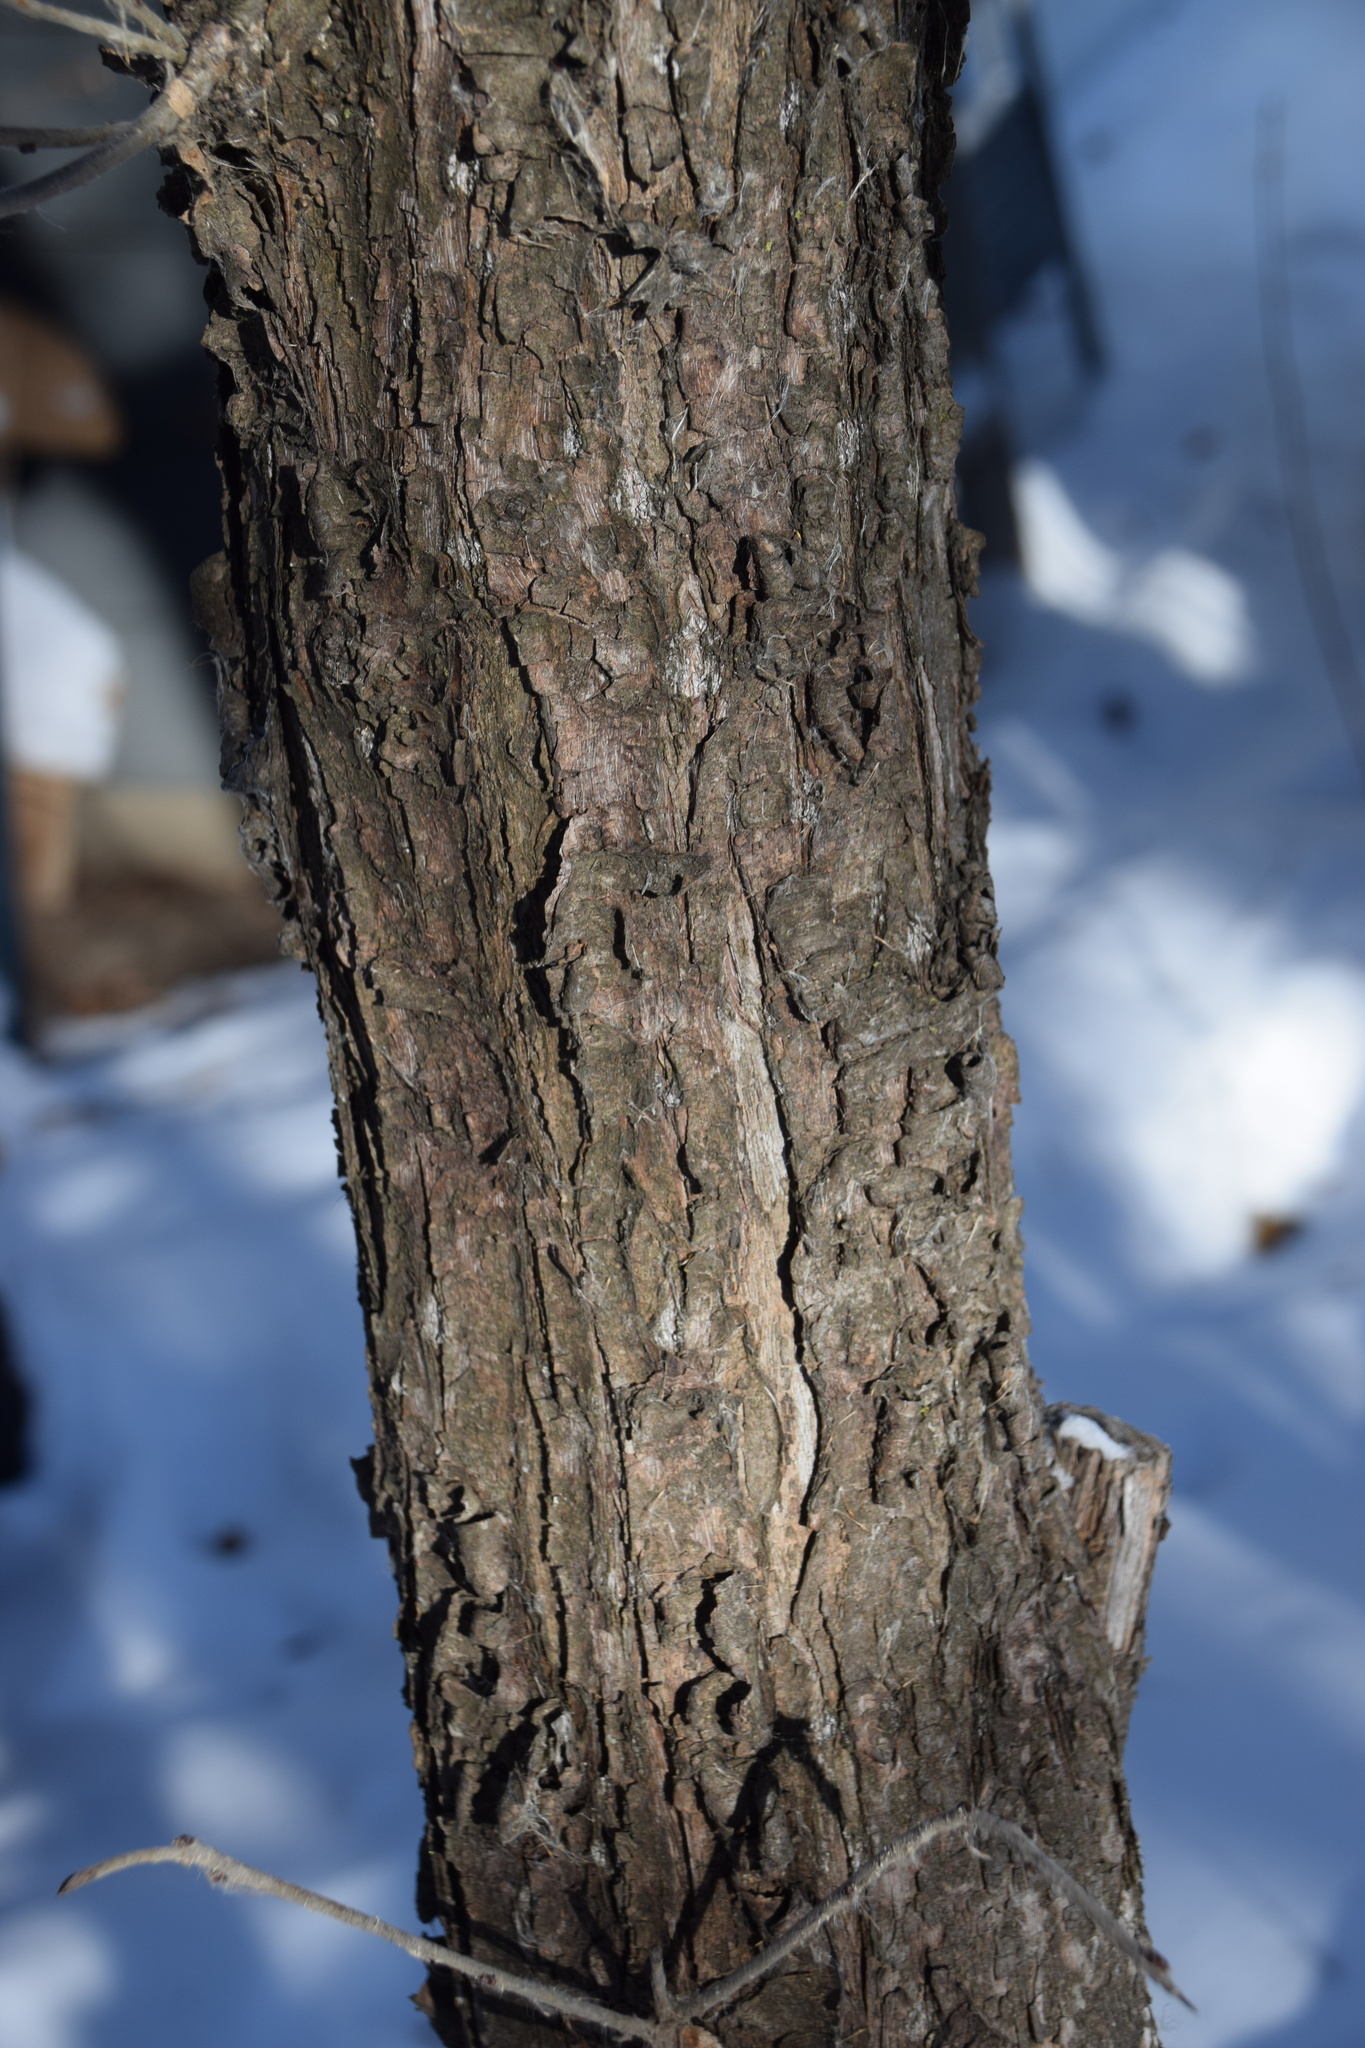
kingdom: Plantae
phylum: Tracheophyta
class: Magnoliopsida
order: Rosales
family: Rhamnaceae
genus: Rhamnus
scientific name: Rhamnus cathartica
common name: Common buckthorn
